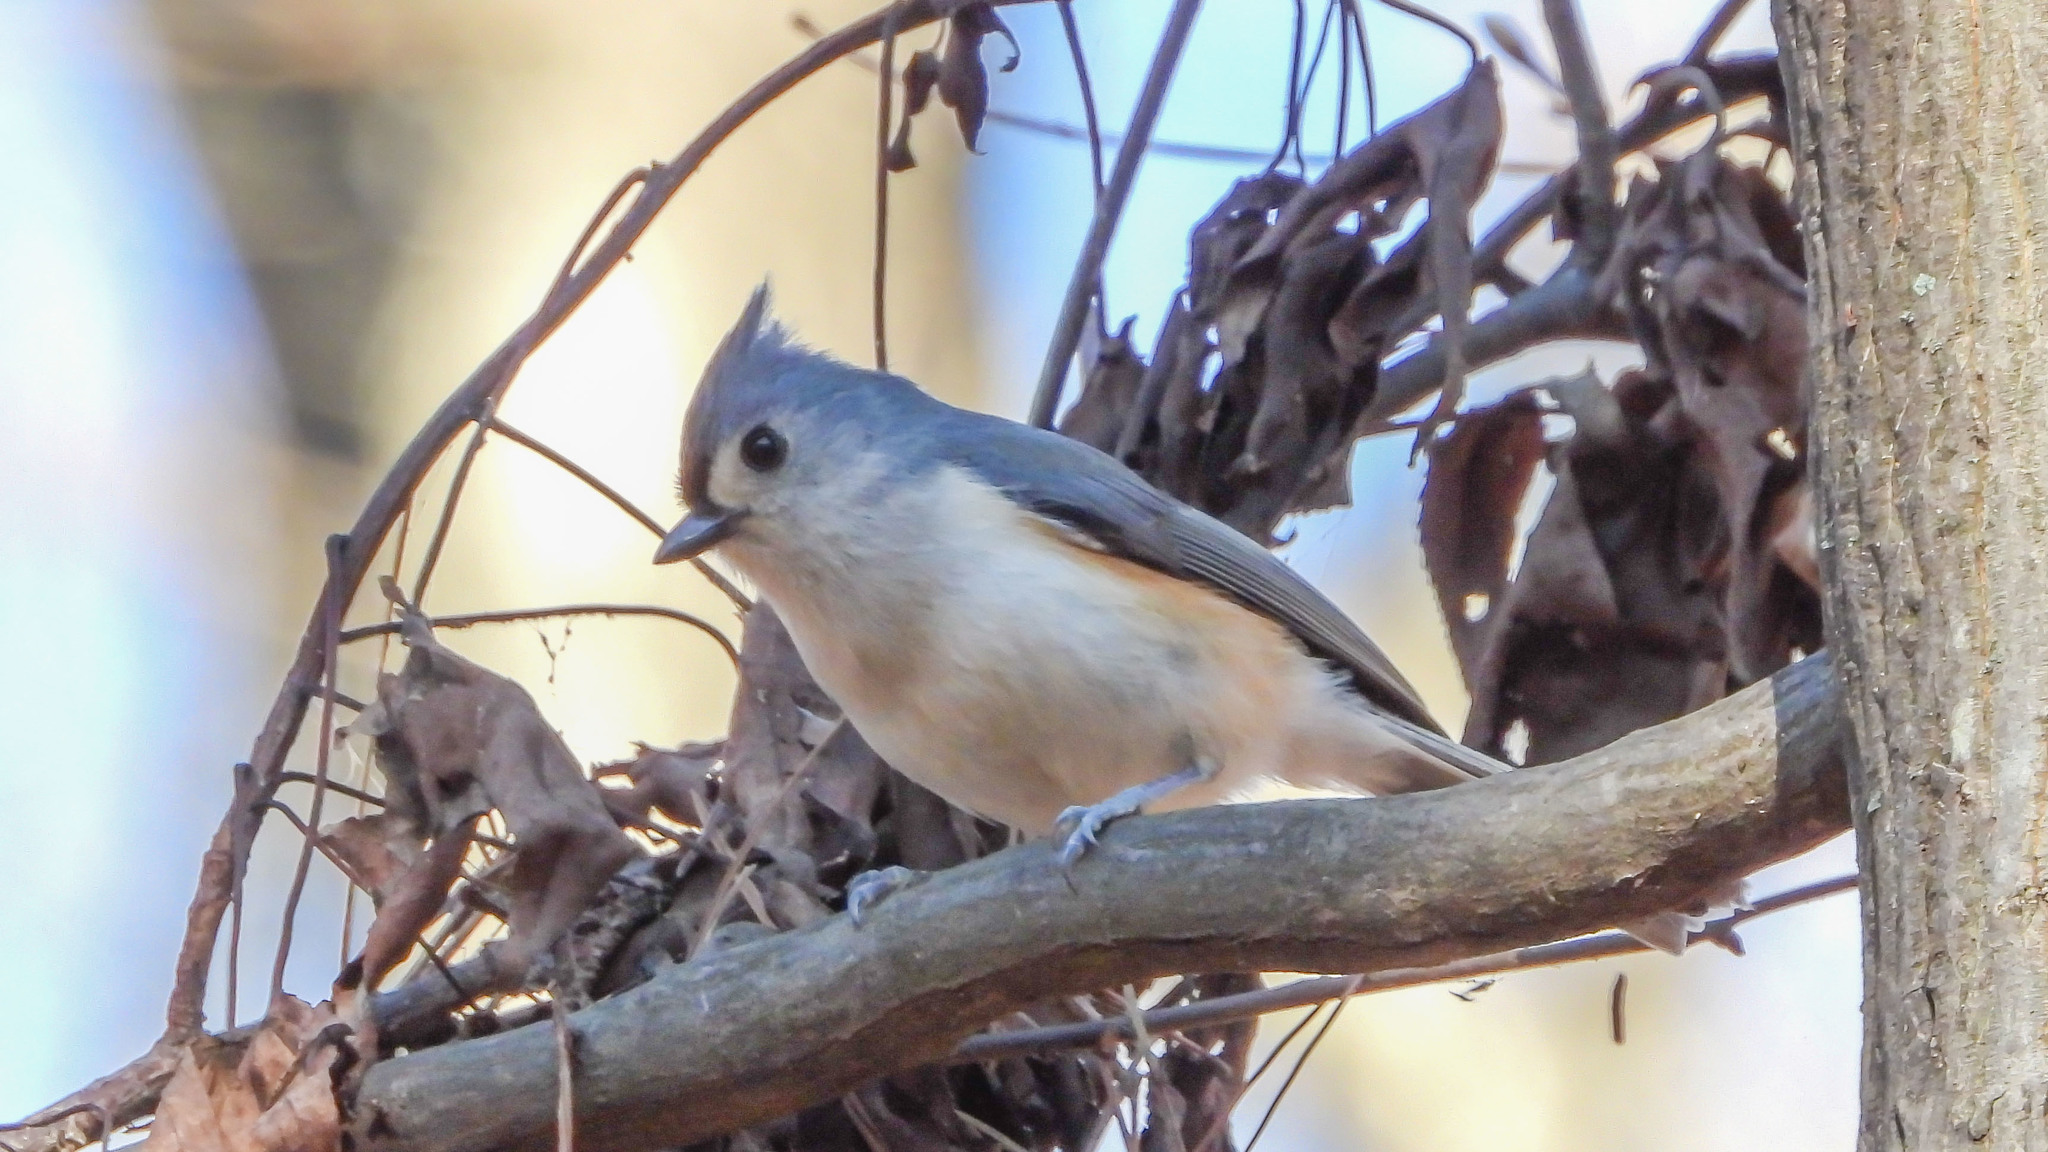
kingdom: Animalia
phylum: Chordata
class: Aves
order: Passeriformes
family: Paridae
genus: Baeolophus
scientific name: Baeolophus bicolor
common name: Tufted titmouse
